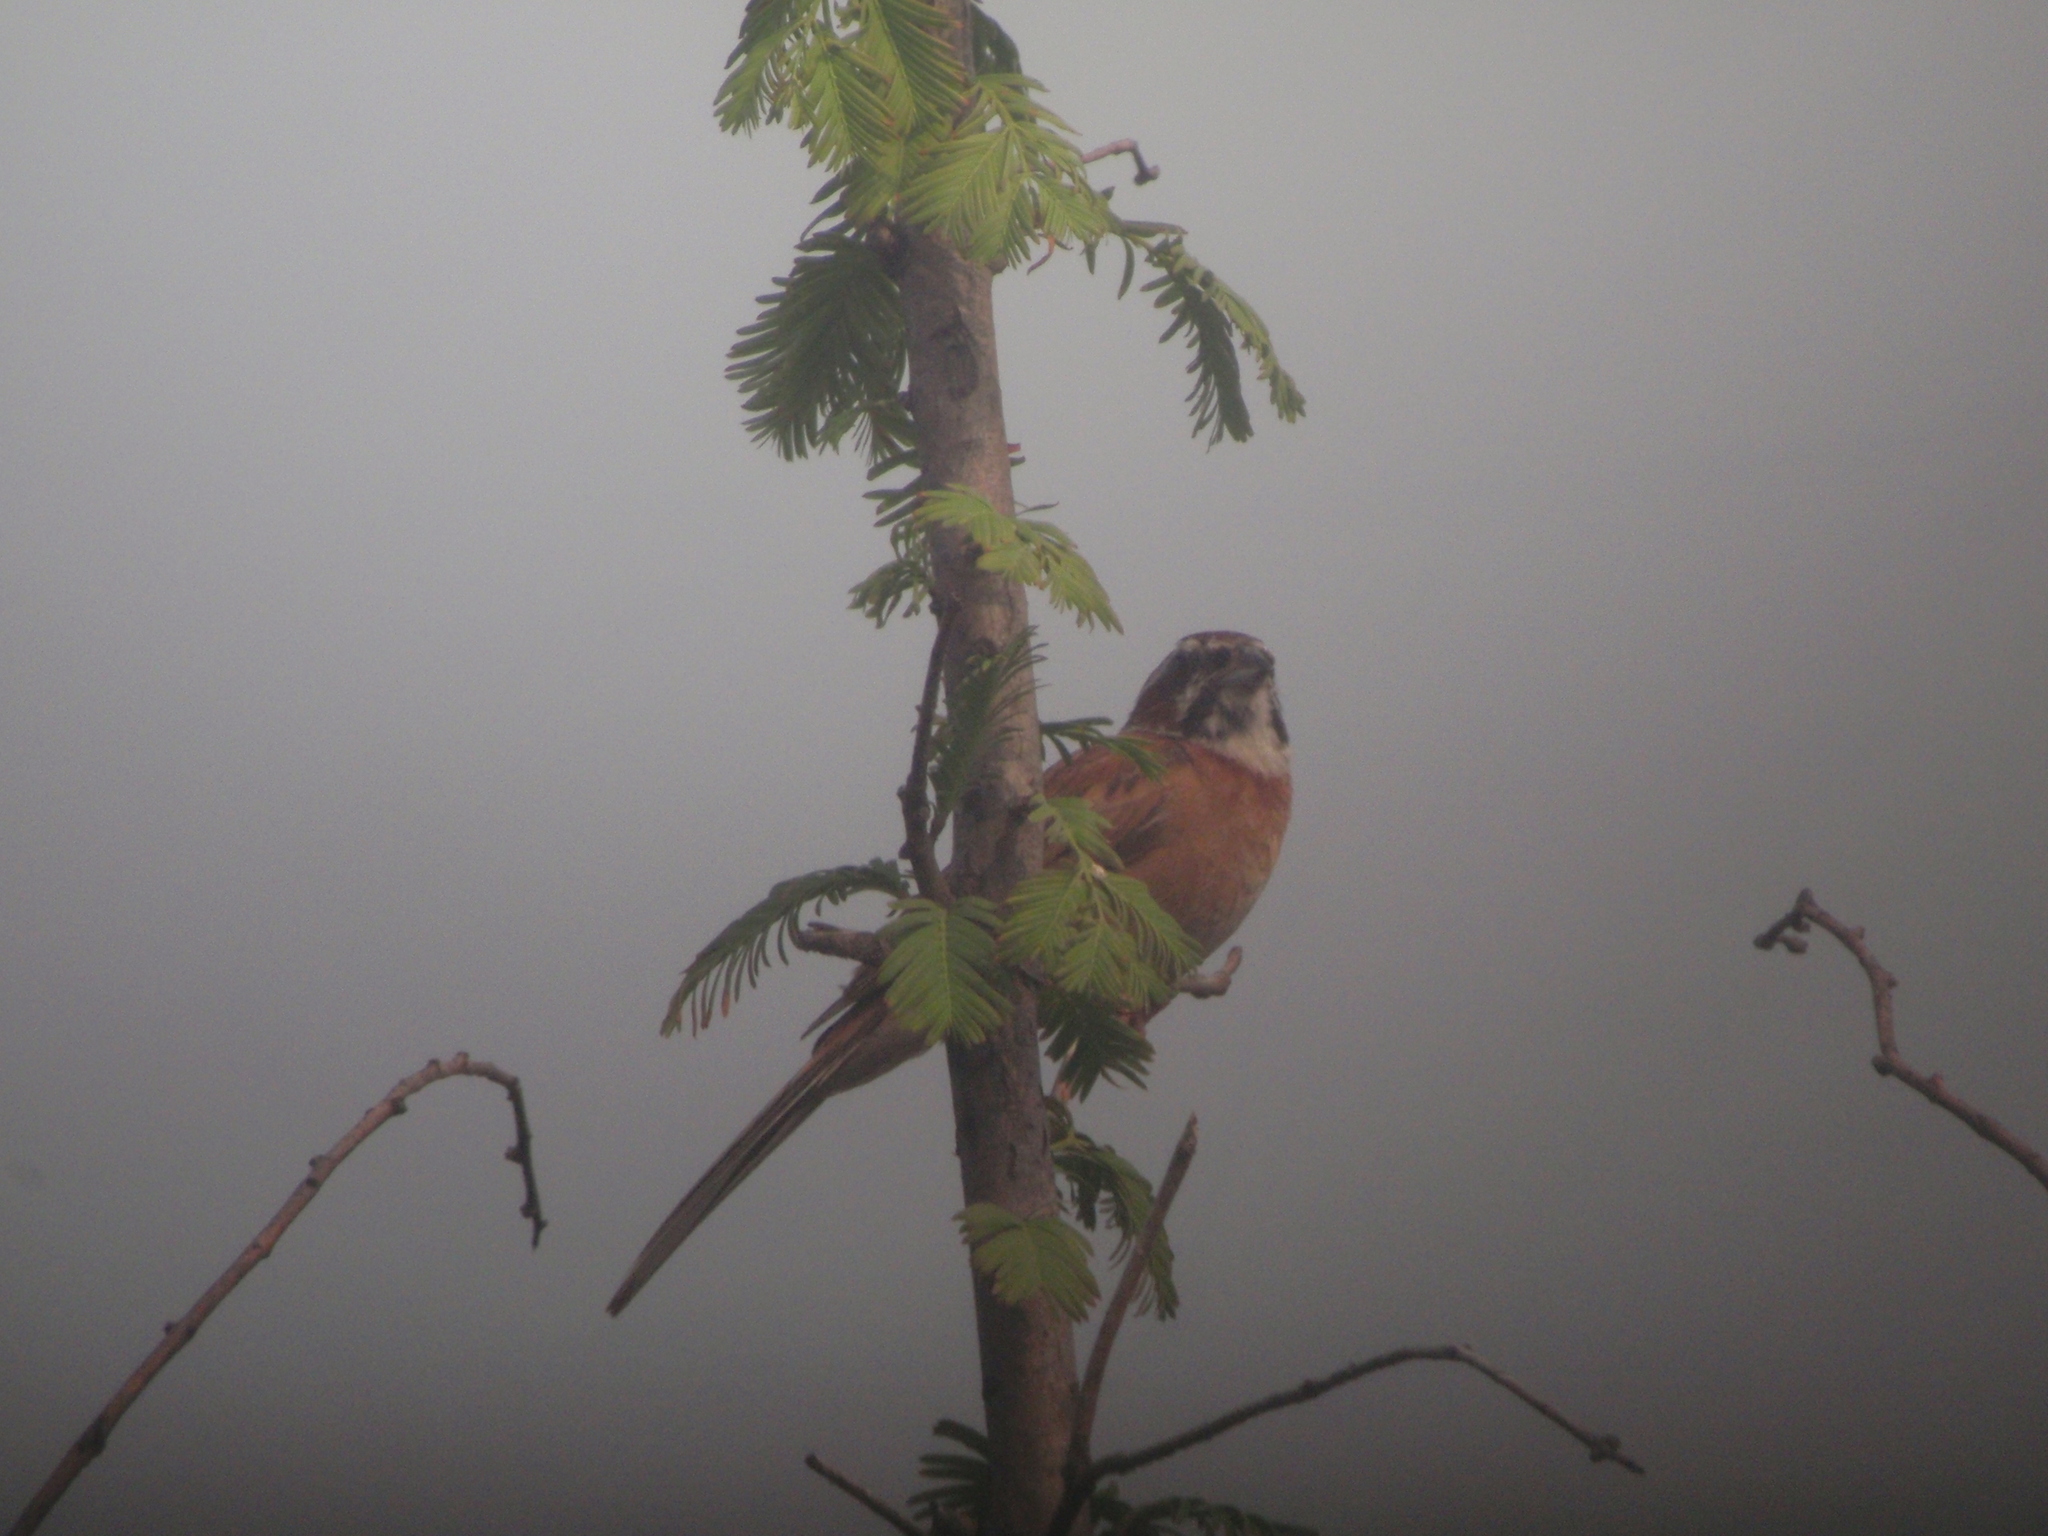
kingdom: Animalia
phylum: Chordata
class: Aves
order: Passeriformes
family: Emberizidae
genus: Emberiza
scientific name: Emberiza cioides
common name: Meadow bunting
